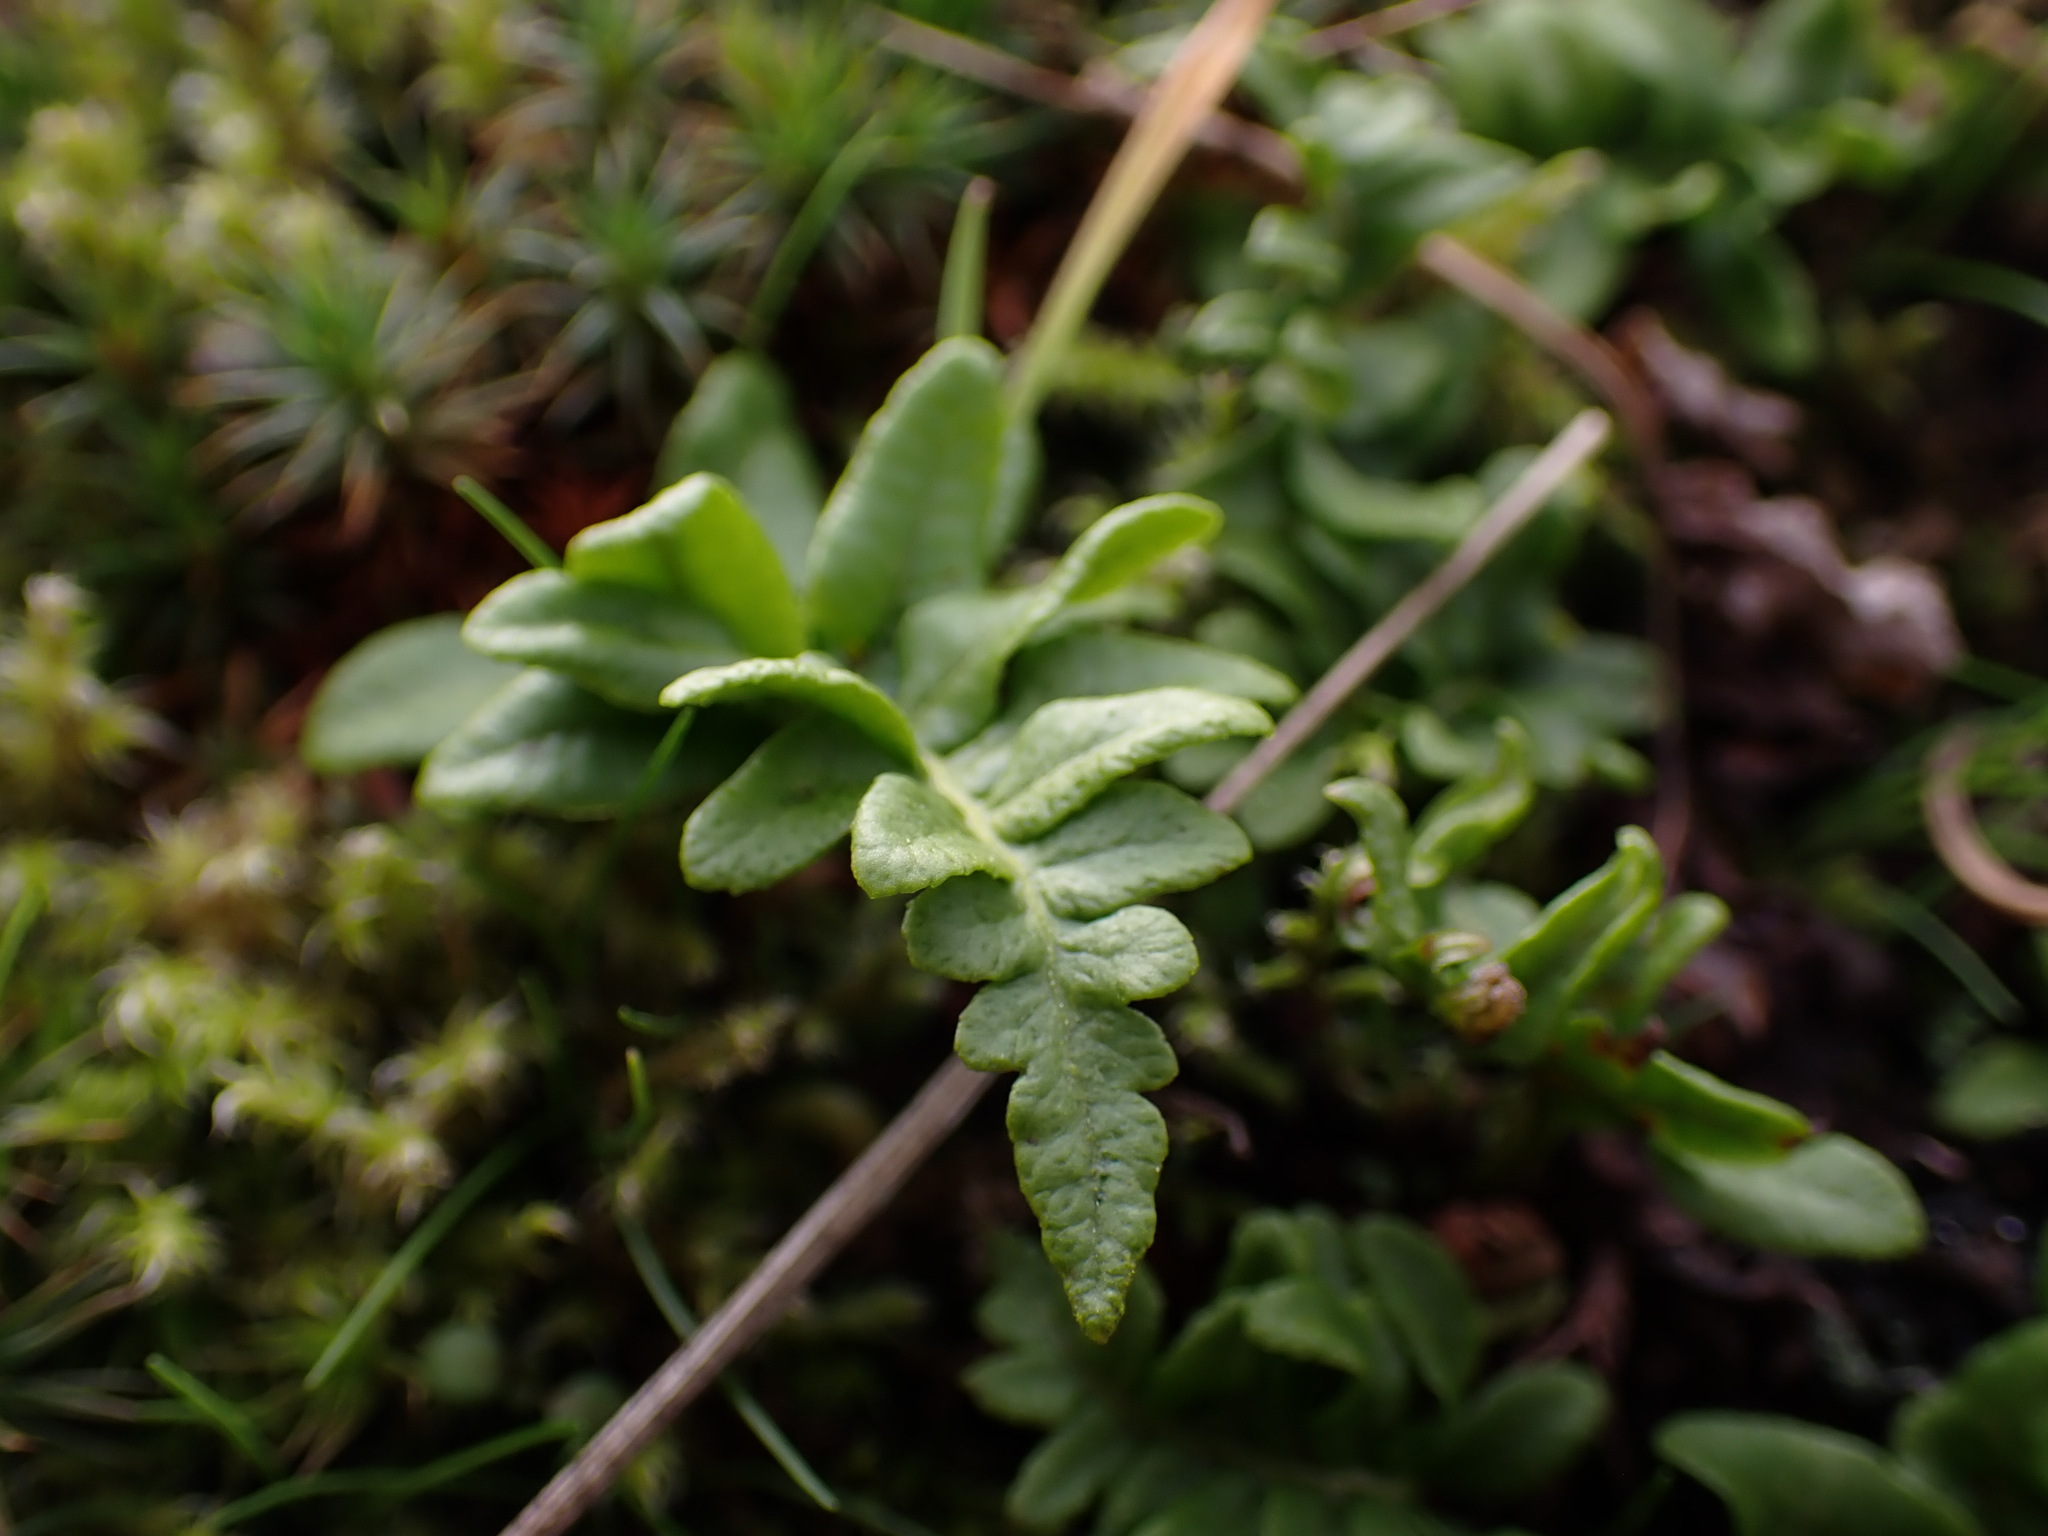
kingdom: Plantae
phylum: Tracheophyta
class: Polypodiopsida
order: Polypodiales
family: Polypodiaceae
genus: Polypodium
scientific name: Polypodium glycyrrhiza
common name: Licorice fern
